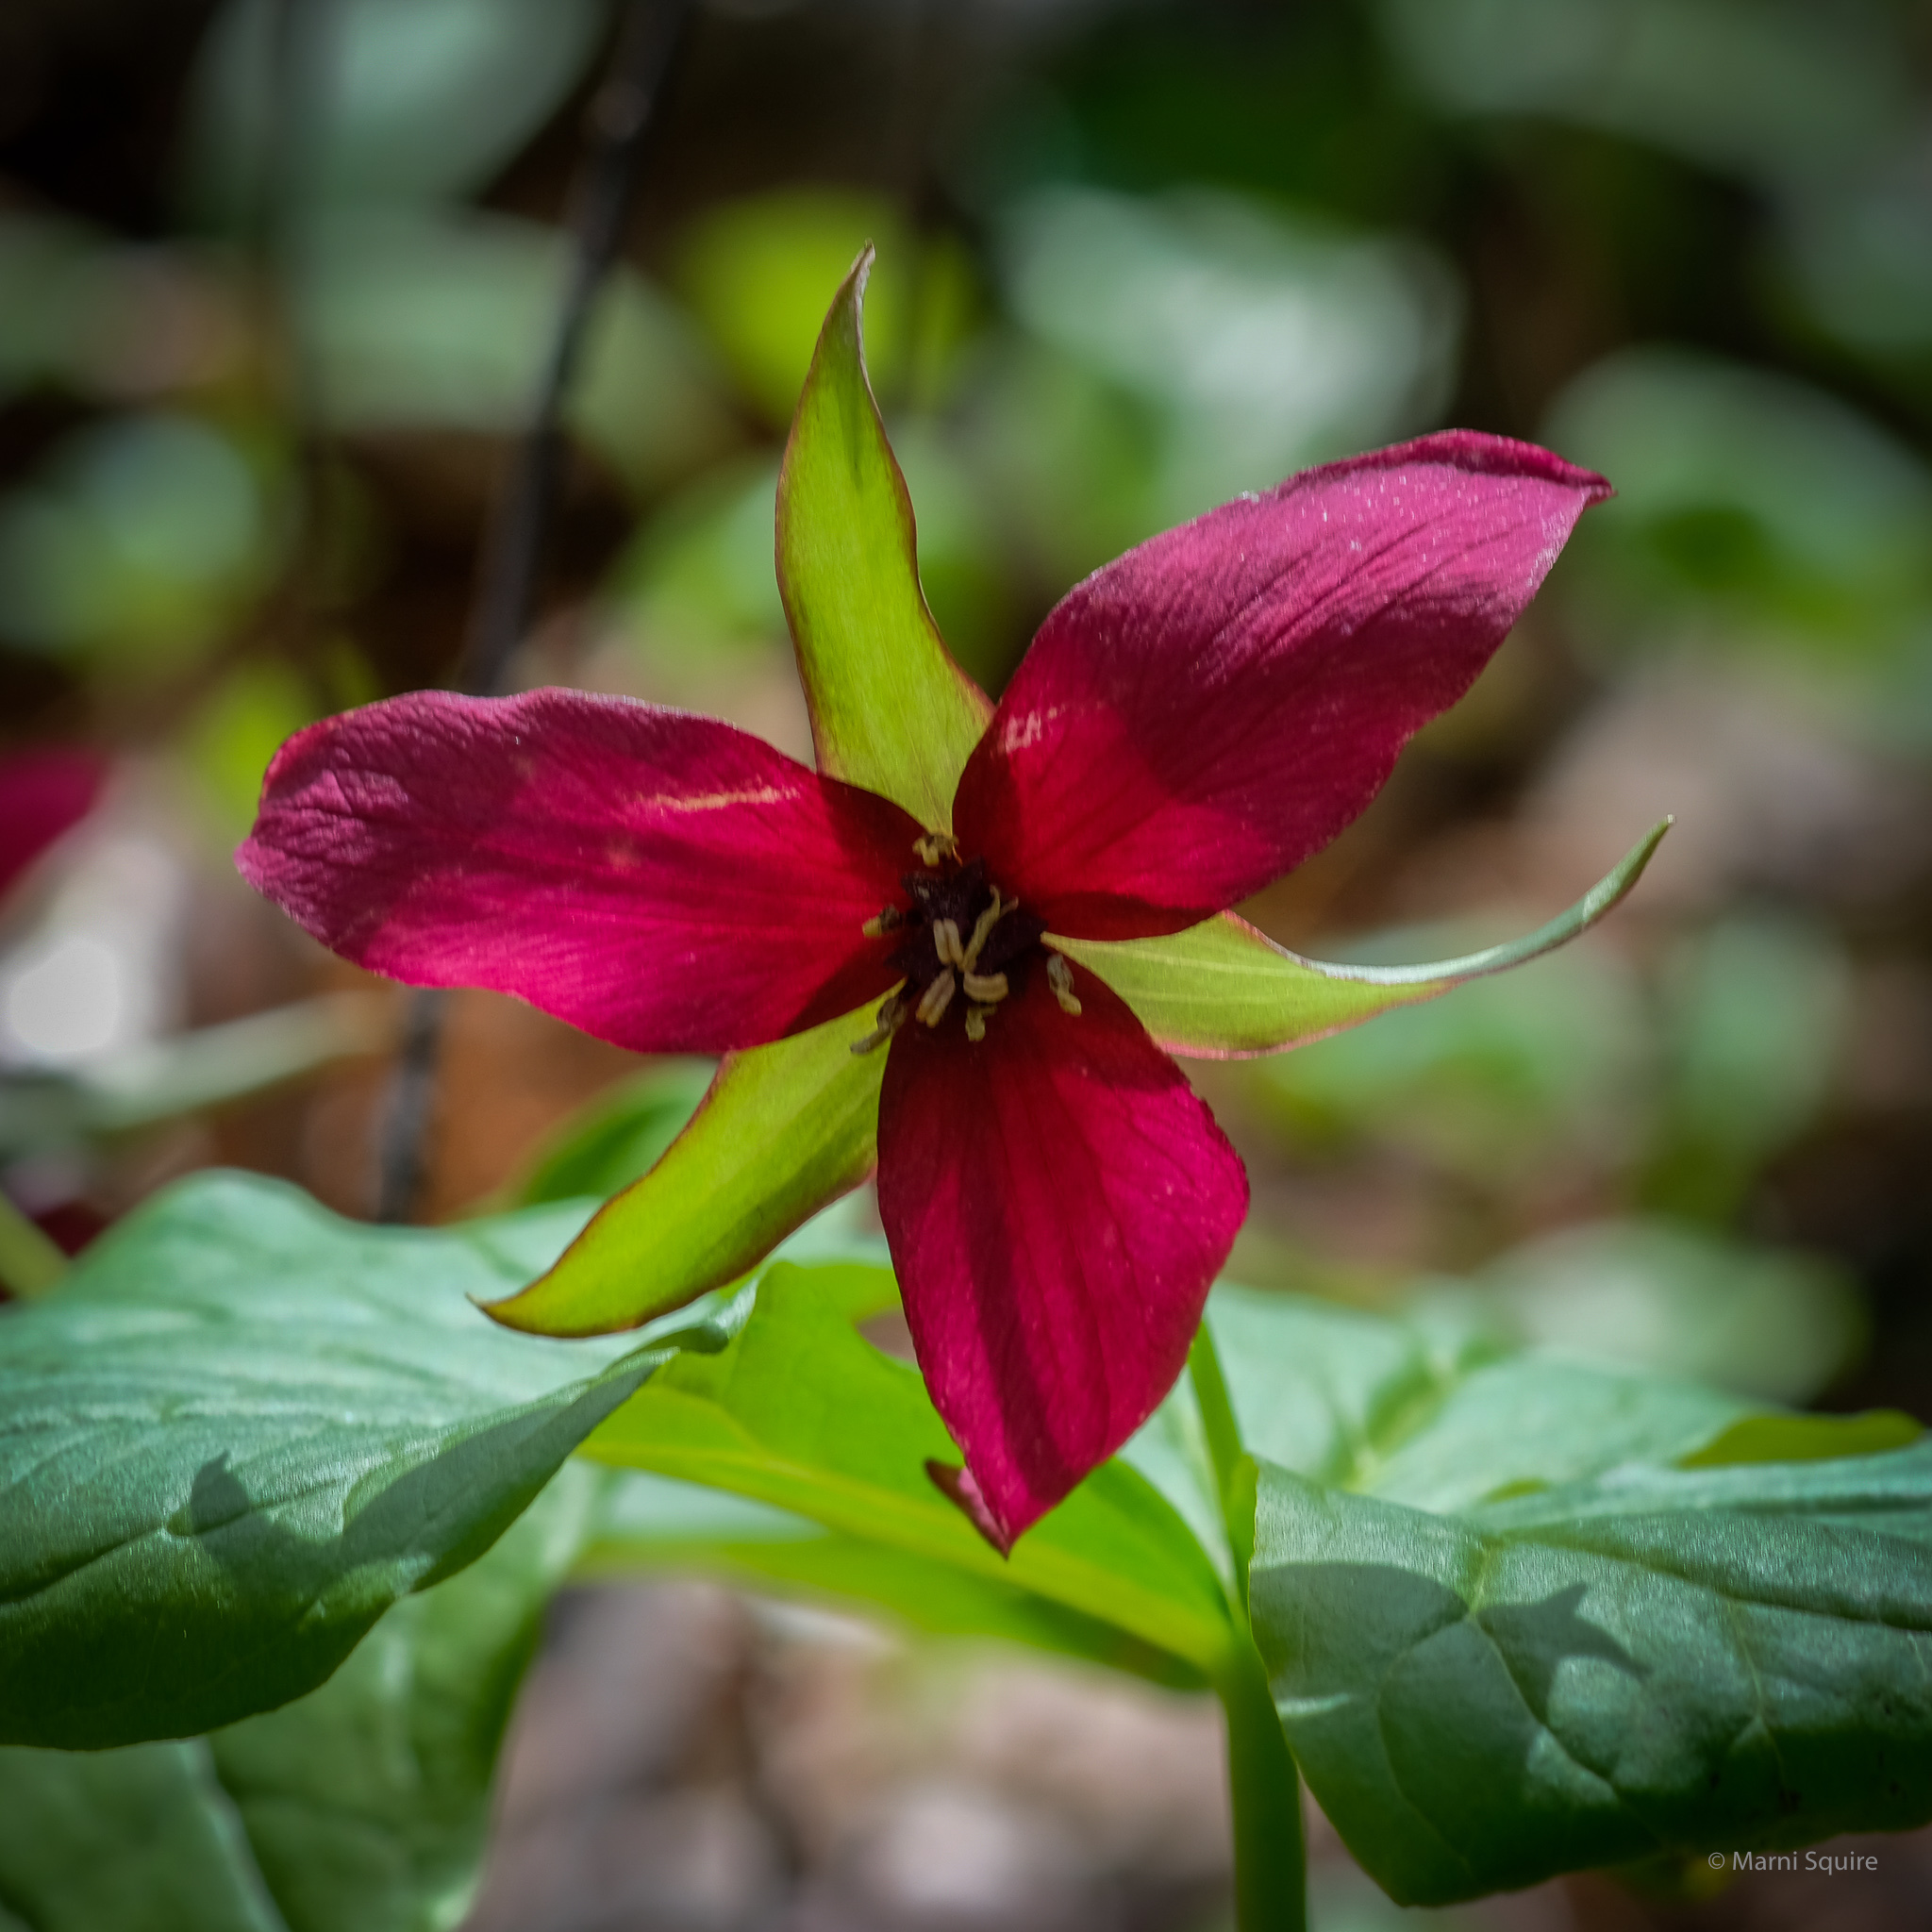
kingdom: Plantae
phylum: Tracheophyta
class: Liliopsida
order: Liliales
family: Melanthiaceae
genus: Trillium
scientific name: Trillium erectum
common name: Purple trillium
